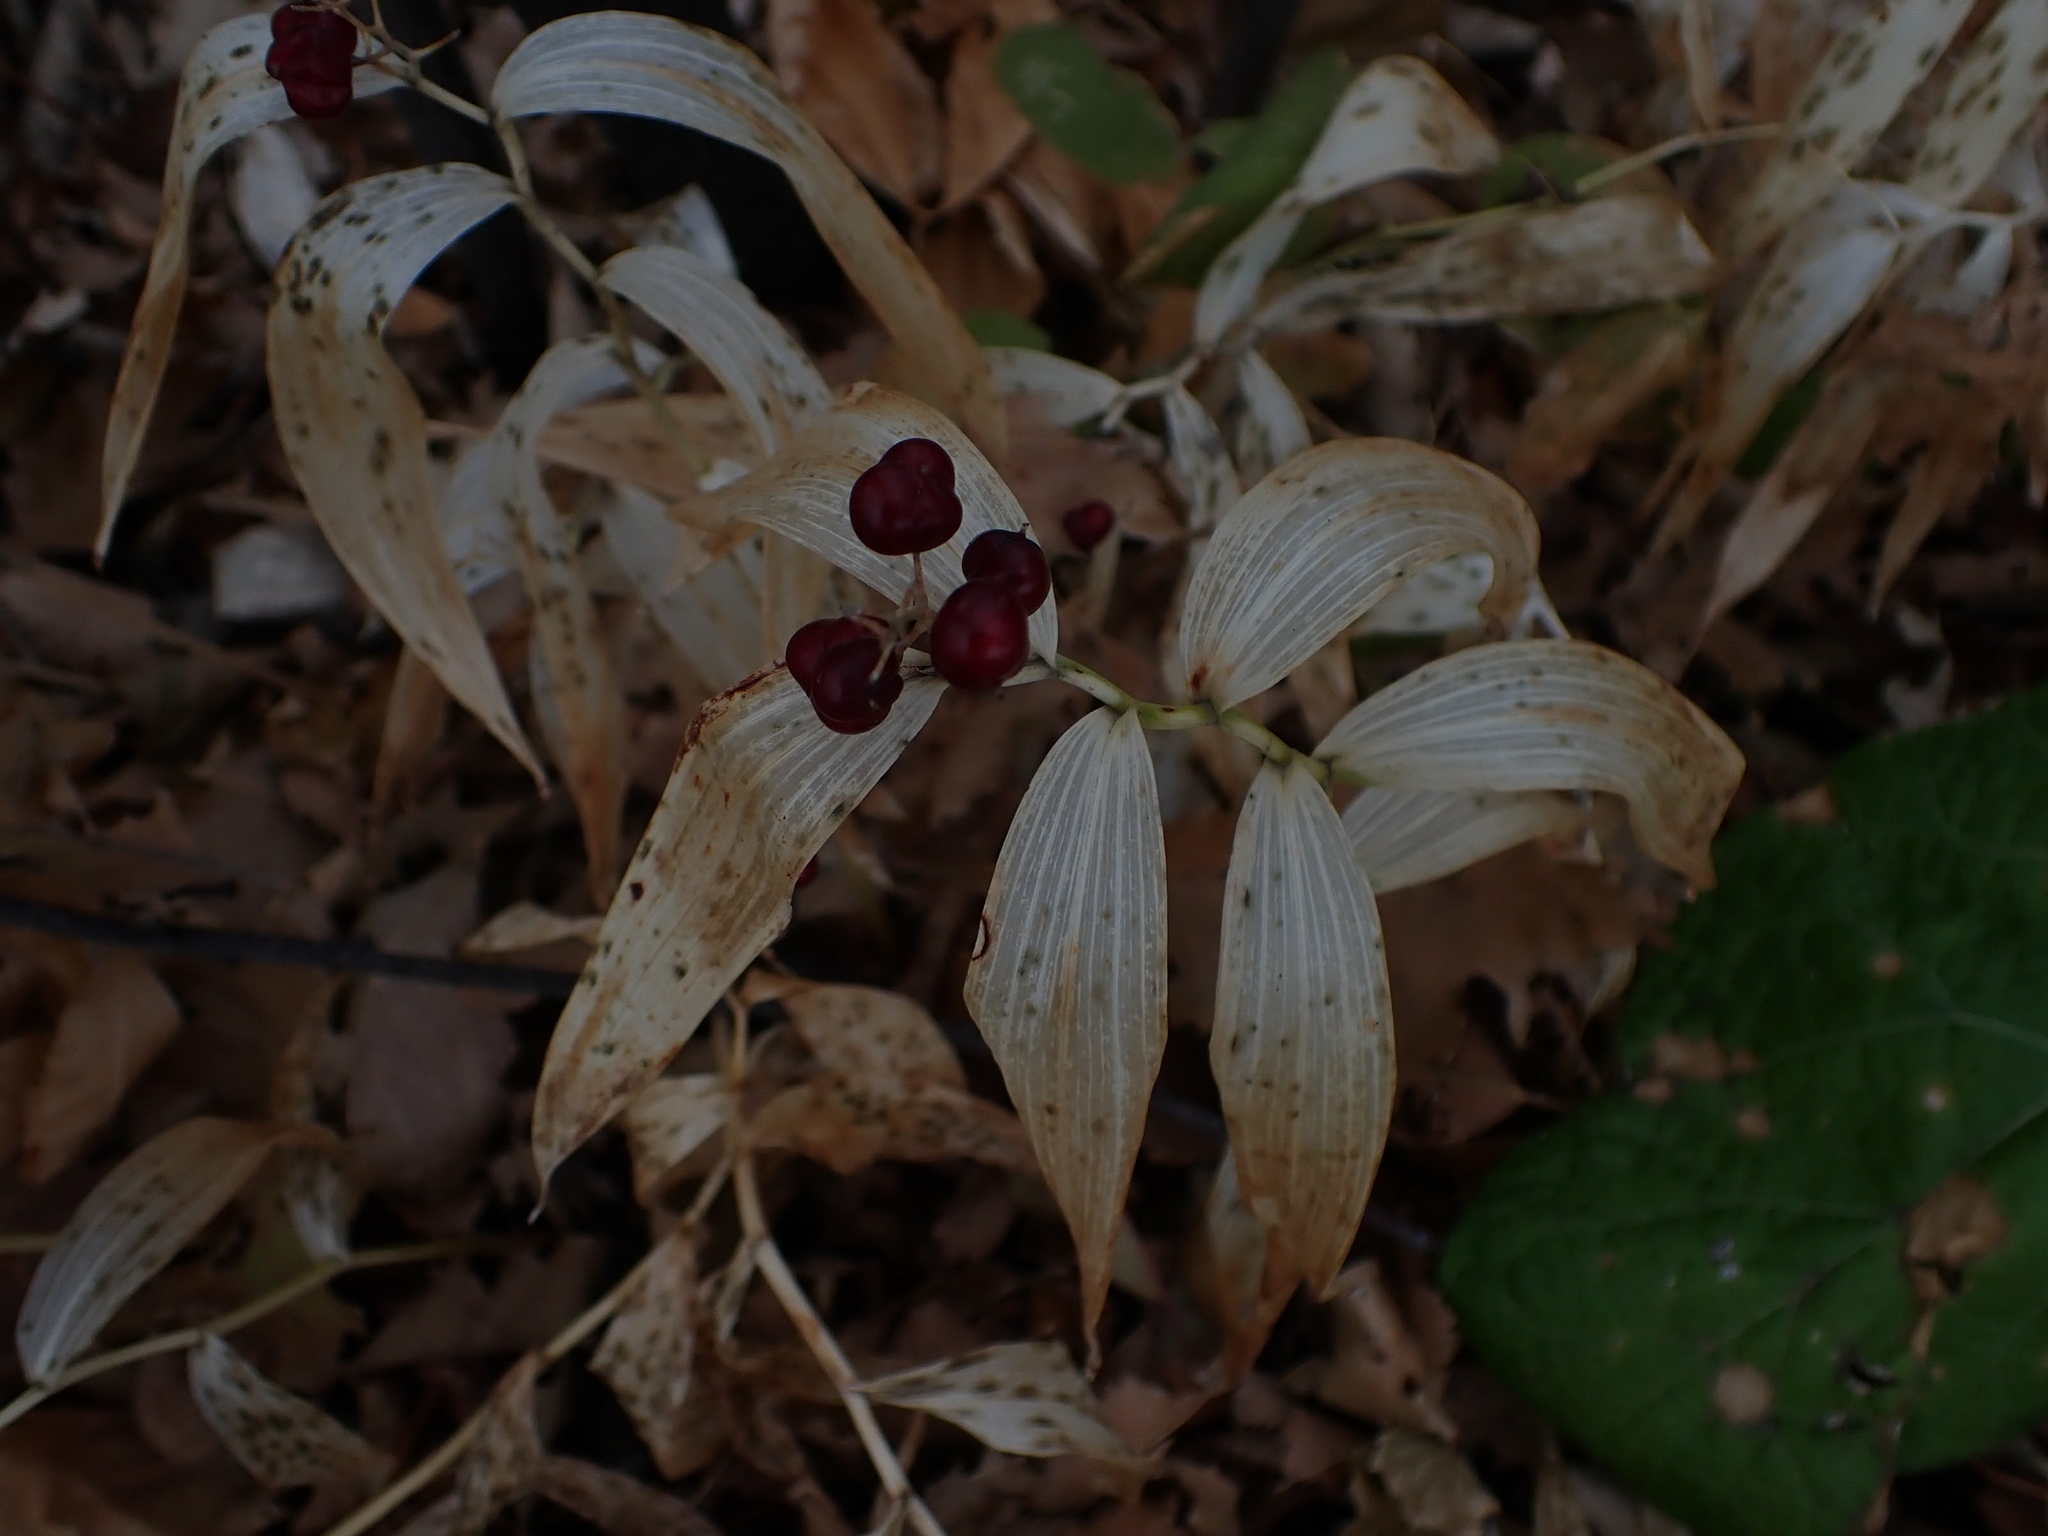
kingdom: Plantae
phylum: Tracheophyta
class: Liliopsida
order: Asparagales
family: Asparagaceae
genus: Maianthemum
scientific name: Maianthemum stellatum
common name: Little false solomon's seal
